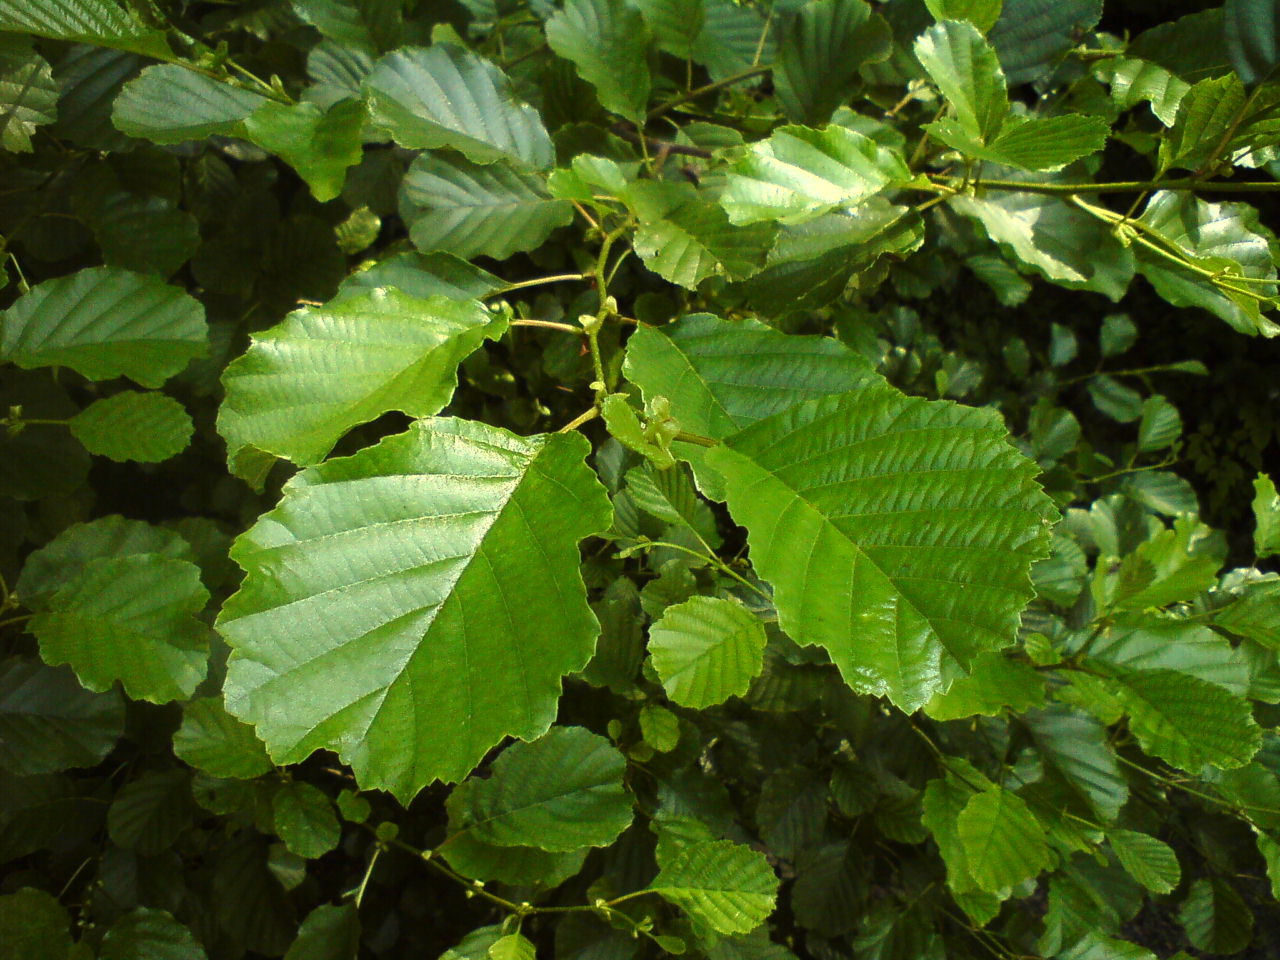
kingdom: Plantae
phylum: Tracheophyta
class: Magnoliopsida
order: Fagales
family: Betulaceae
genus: Alnus
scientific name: Alnus glutinosa
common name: Black alder
